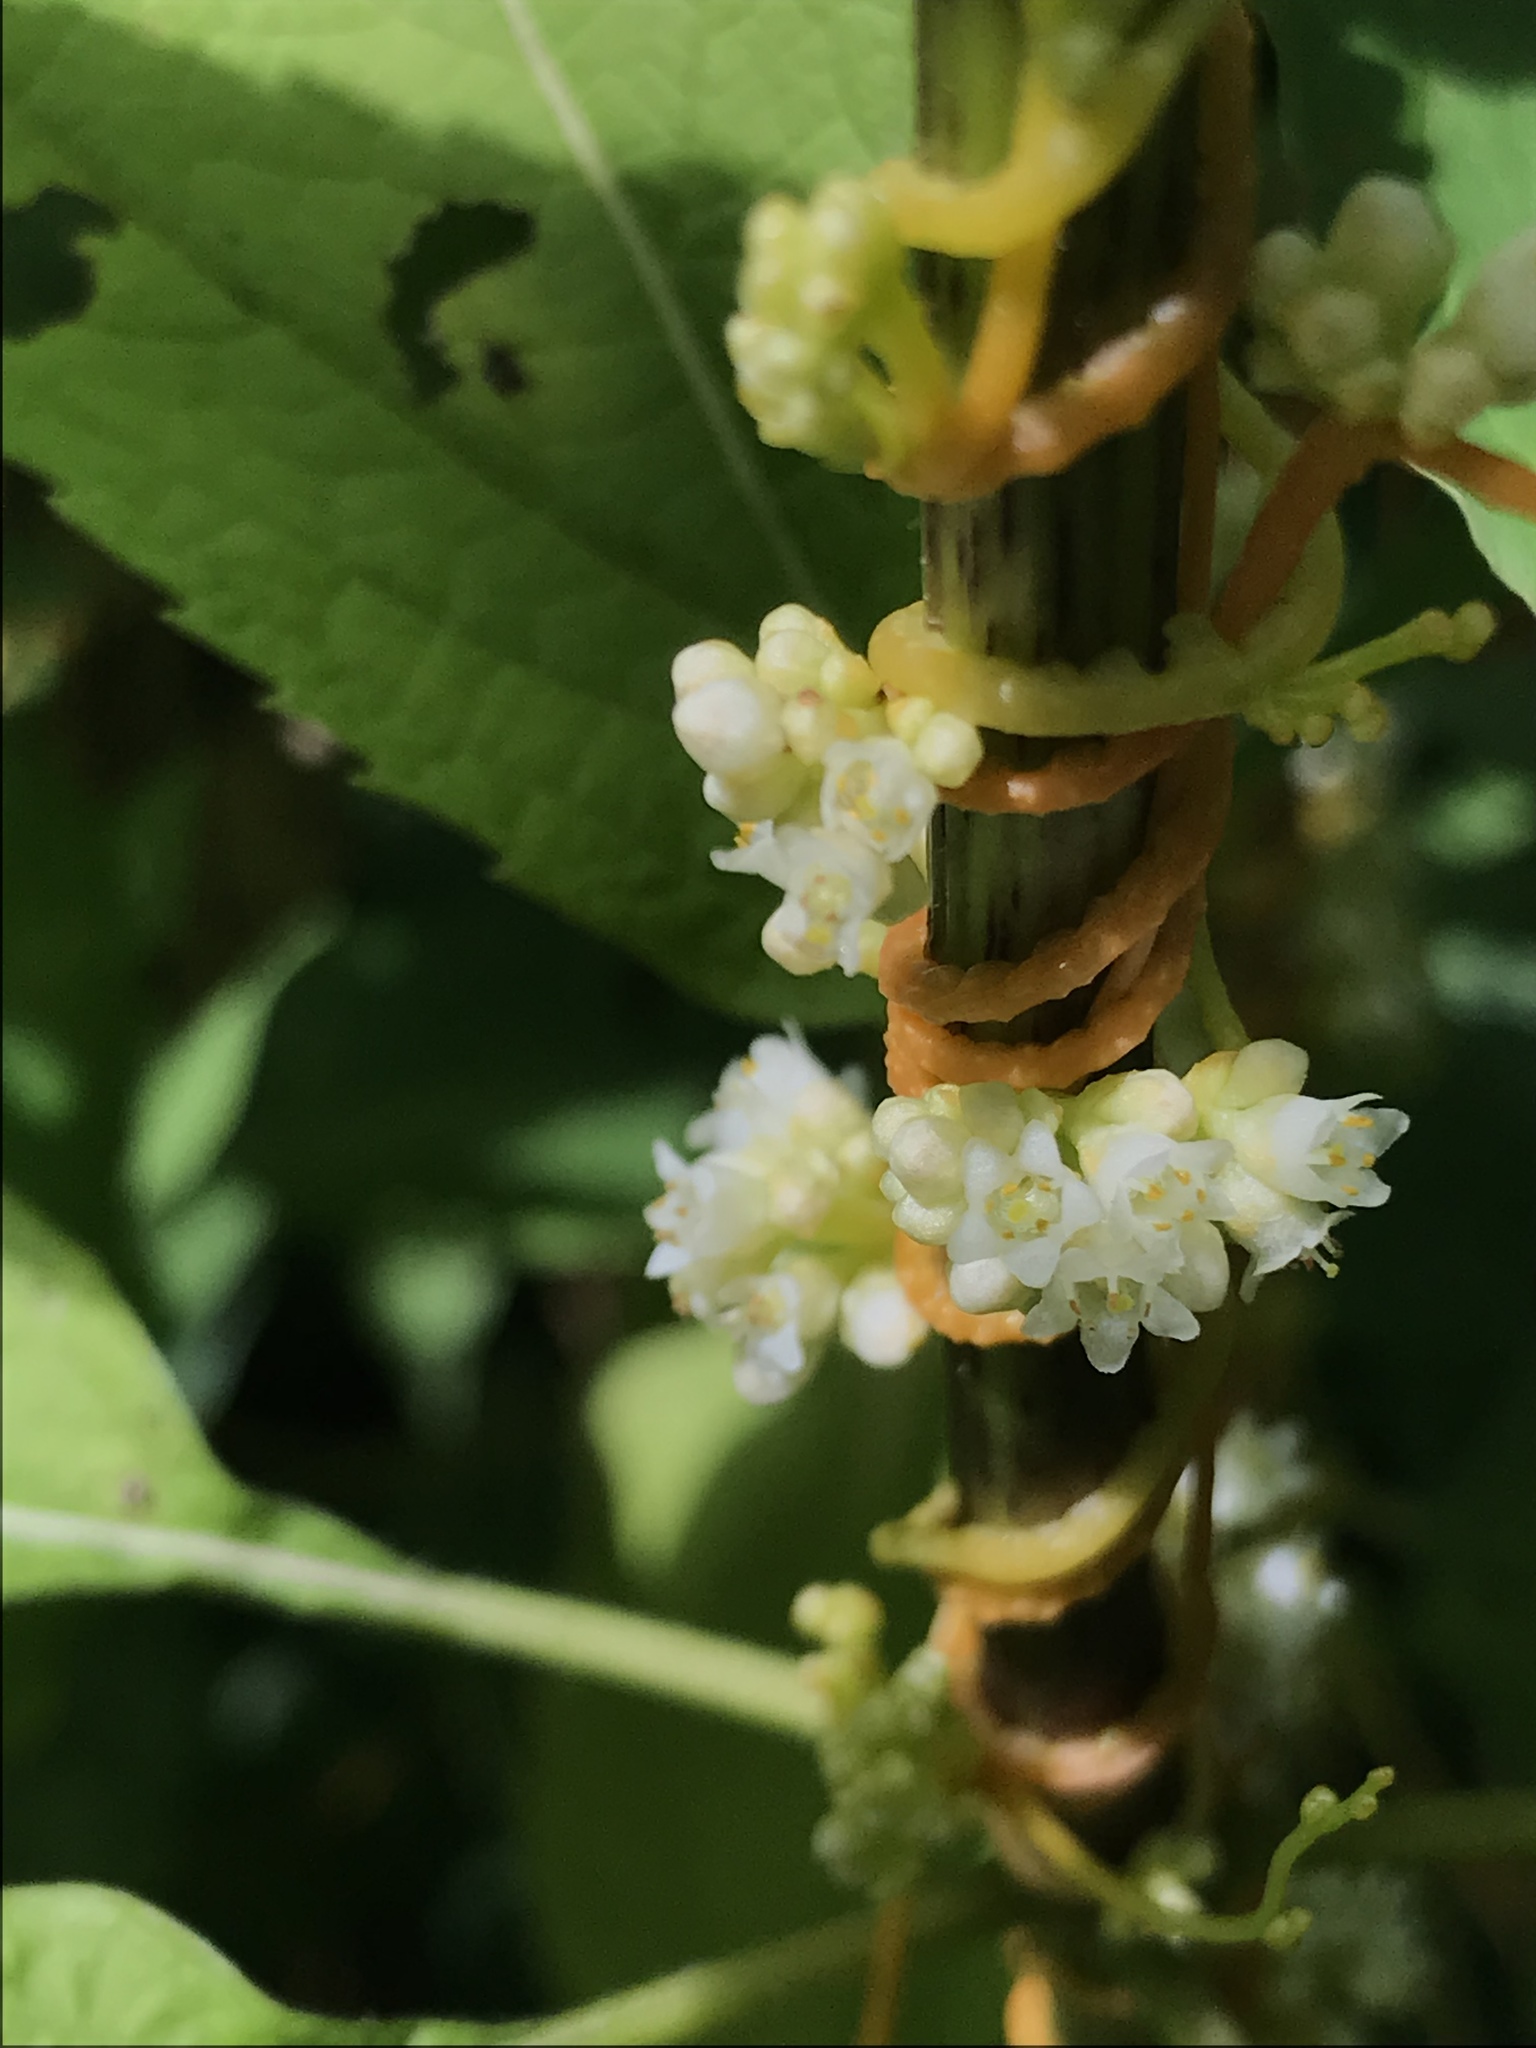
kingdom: Plantae
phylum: Tracheophyta
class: Magnoliopsida
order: Solanales
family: Convolvulaceae
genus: Cuscuta
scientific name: Cuscuta gronovii
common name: Common dodder
